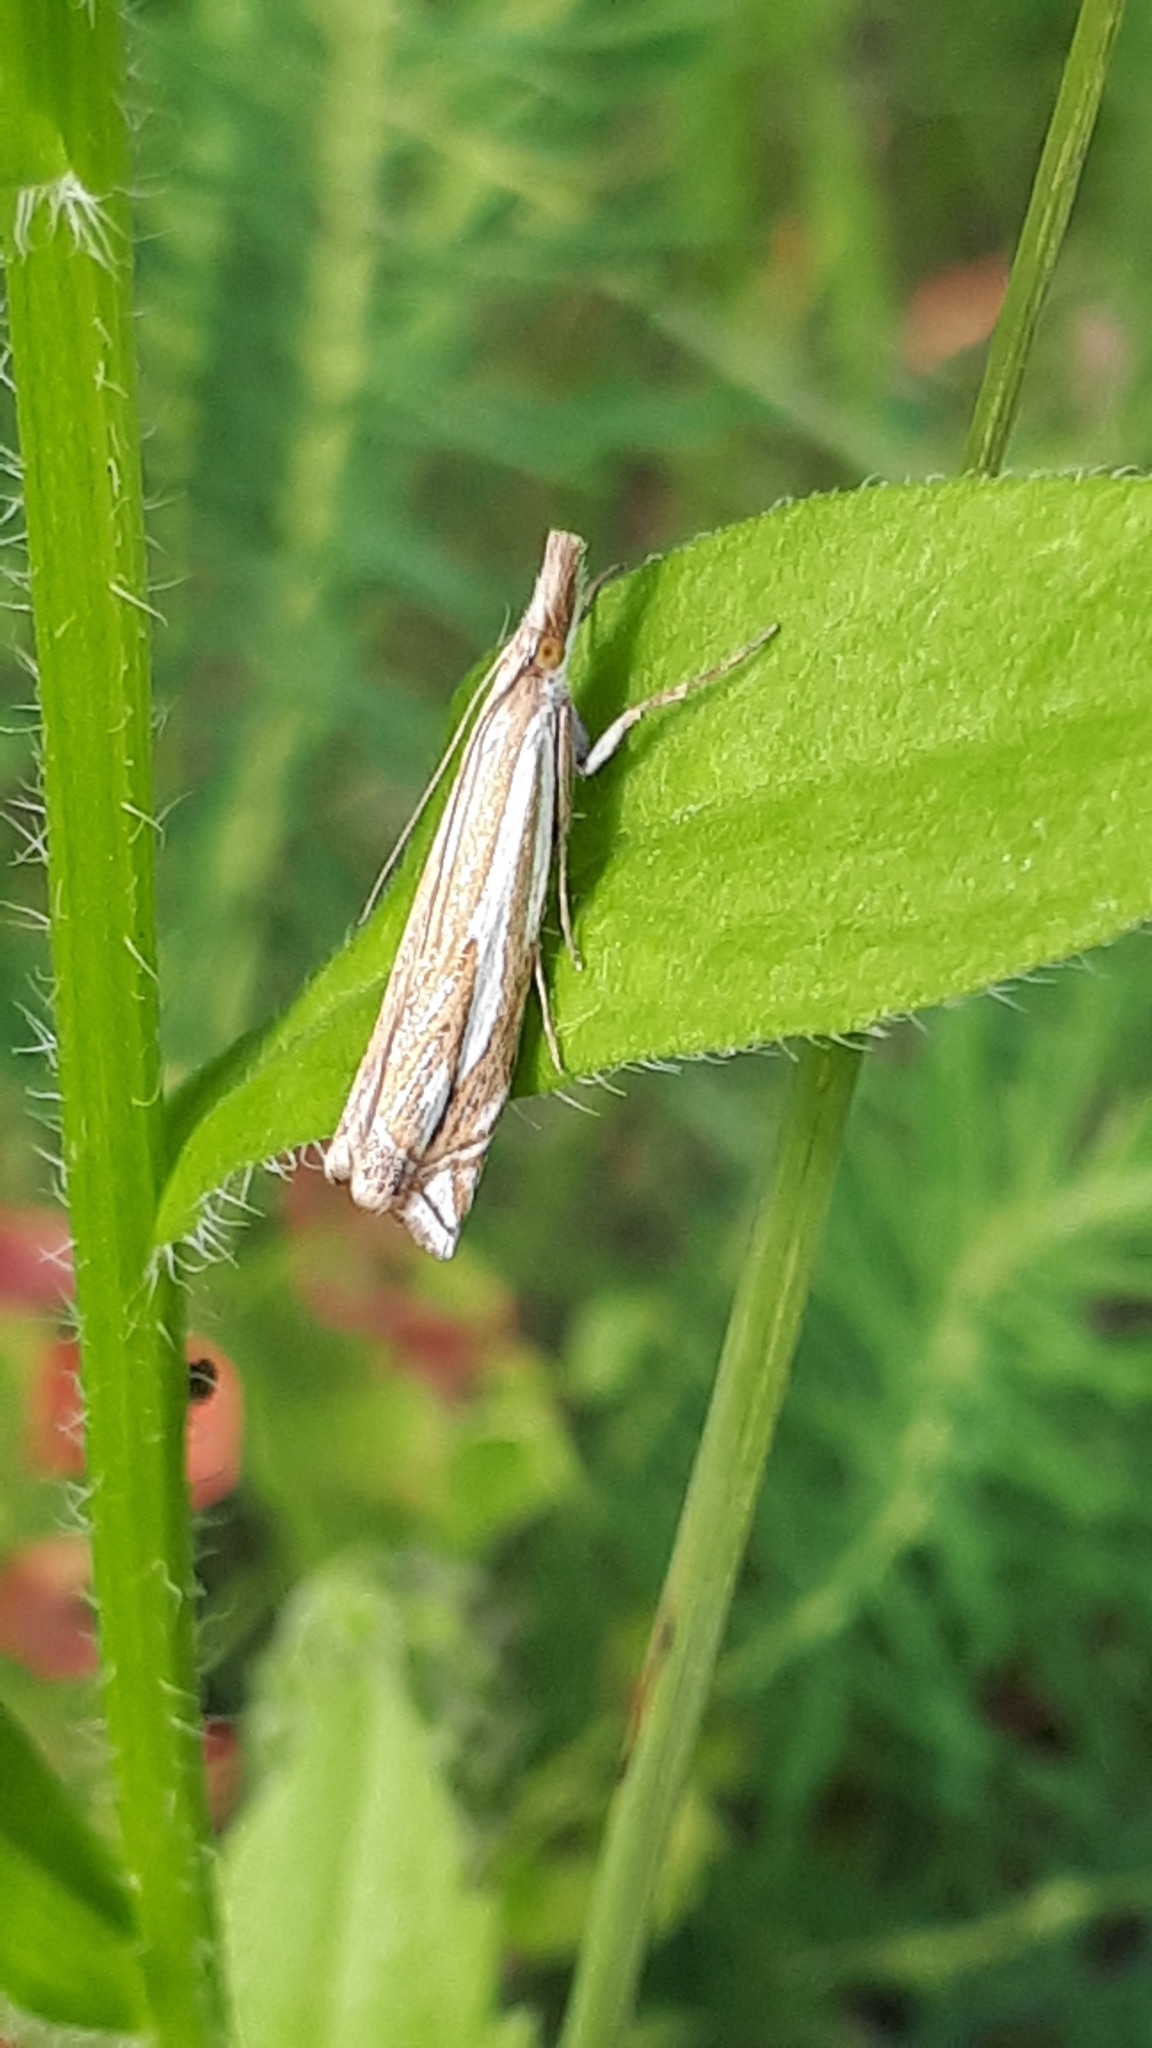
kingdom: Animalia
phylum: Arthropoda
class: Insecta
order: Lepidoptera
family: Crambidae
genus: Crambus
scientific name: Crambus pratella
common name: Scarce grass-veneer
